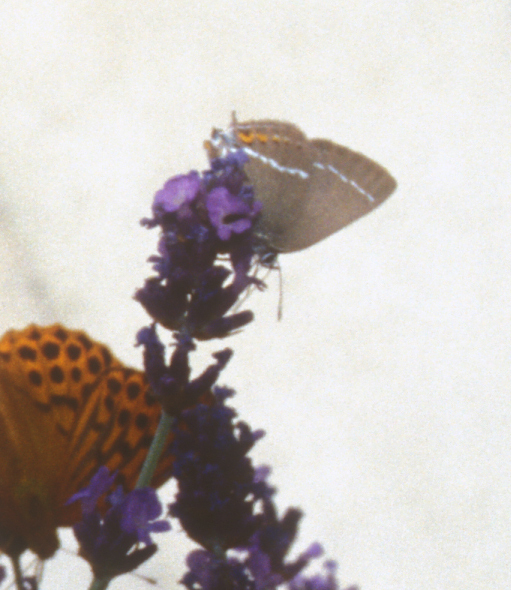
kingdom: Animalia
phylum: Arthropoda
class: Insecta
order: Lepidoptera
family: Lycaenidae
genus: Tuttiola
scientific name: Tuttiola spini
